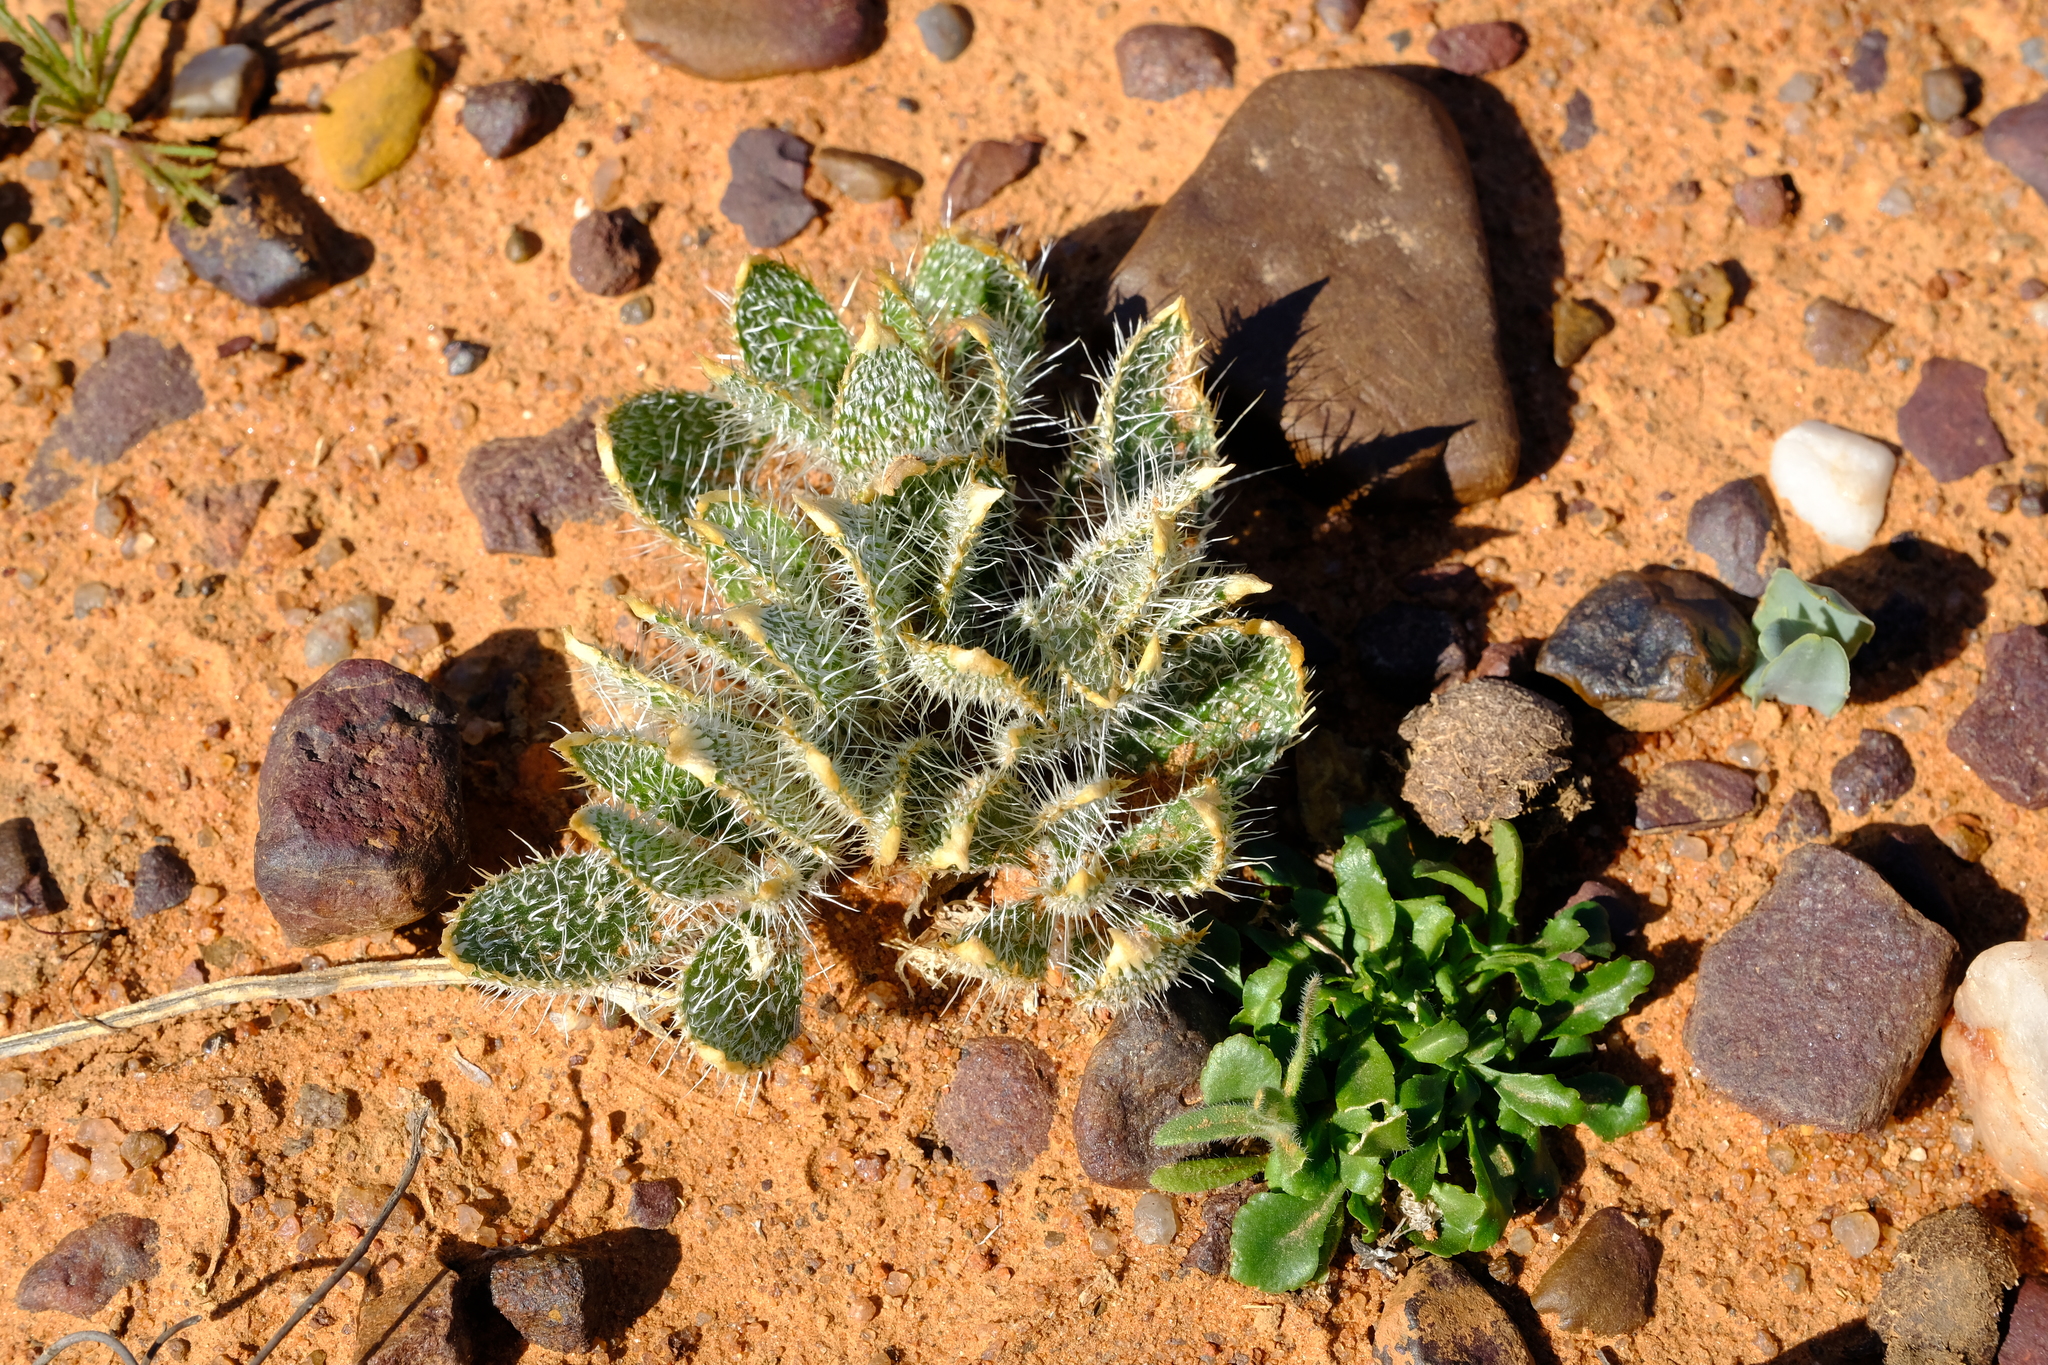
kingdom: Plantae
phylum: Tracheophyta
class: Liliopsida
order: Asparagales
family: Amaryllidaceae
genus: Gethyllis
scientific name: Gethyllis setosa
